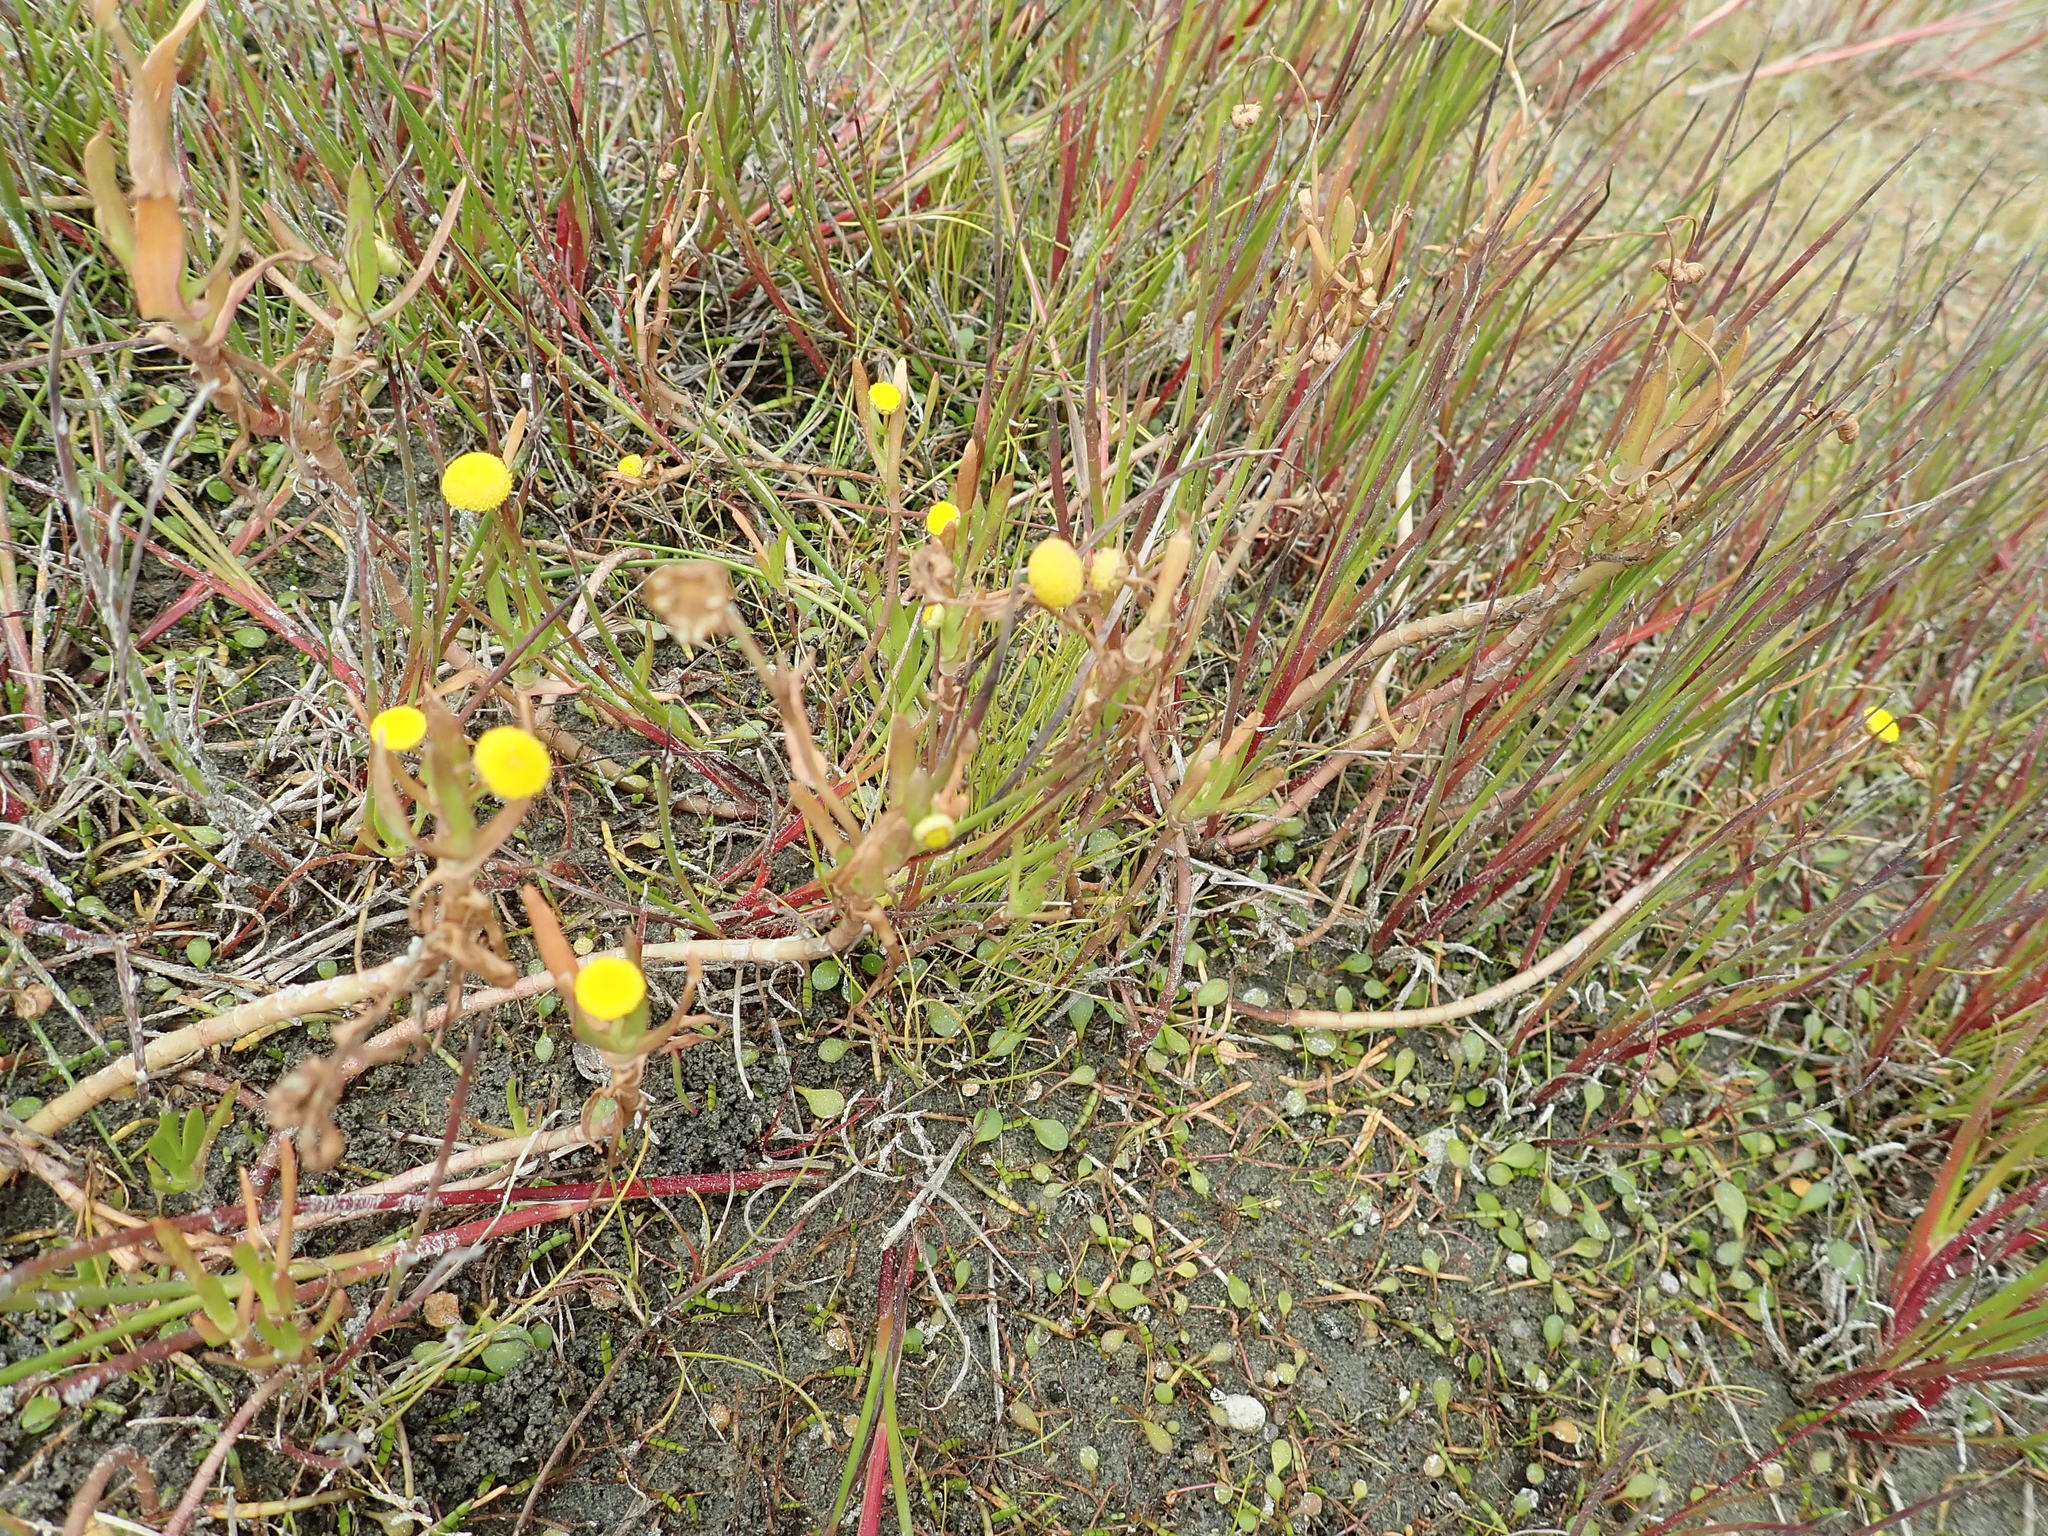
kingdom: Plantae
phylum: Tracheophyta
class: Magnoliopsida
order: Asterales
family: Asteraceae
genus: Cotula
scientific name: Cotula coronopifolia
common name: Buttonweed
